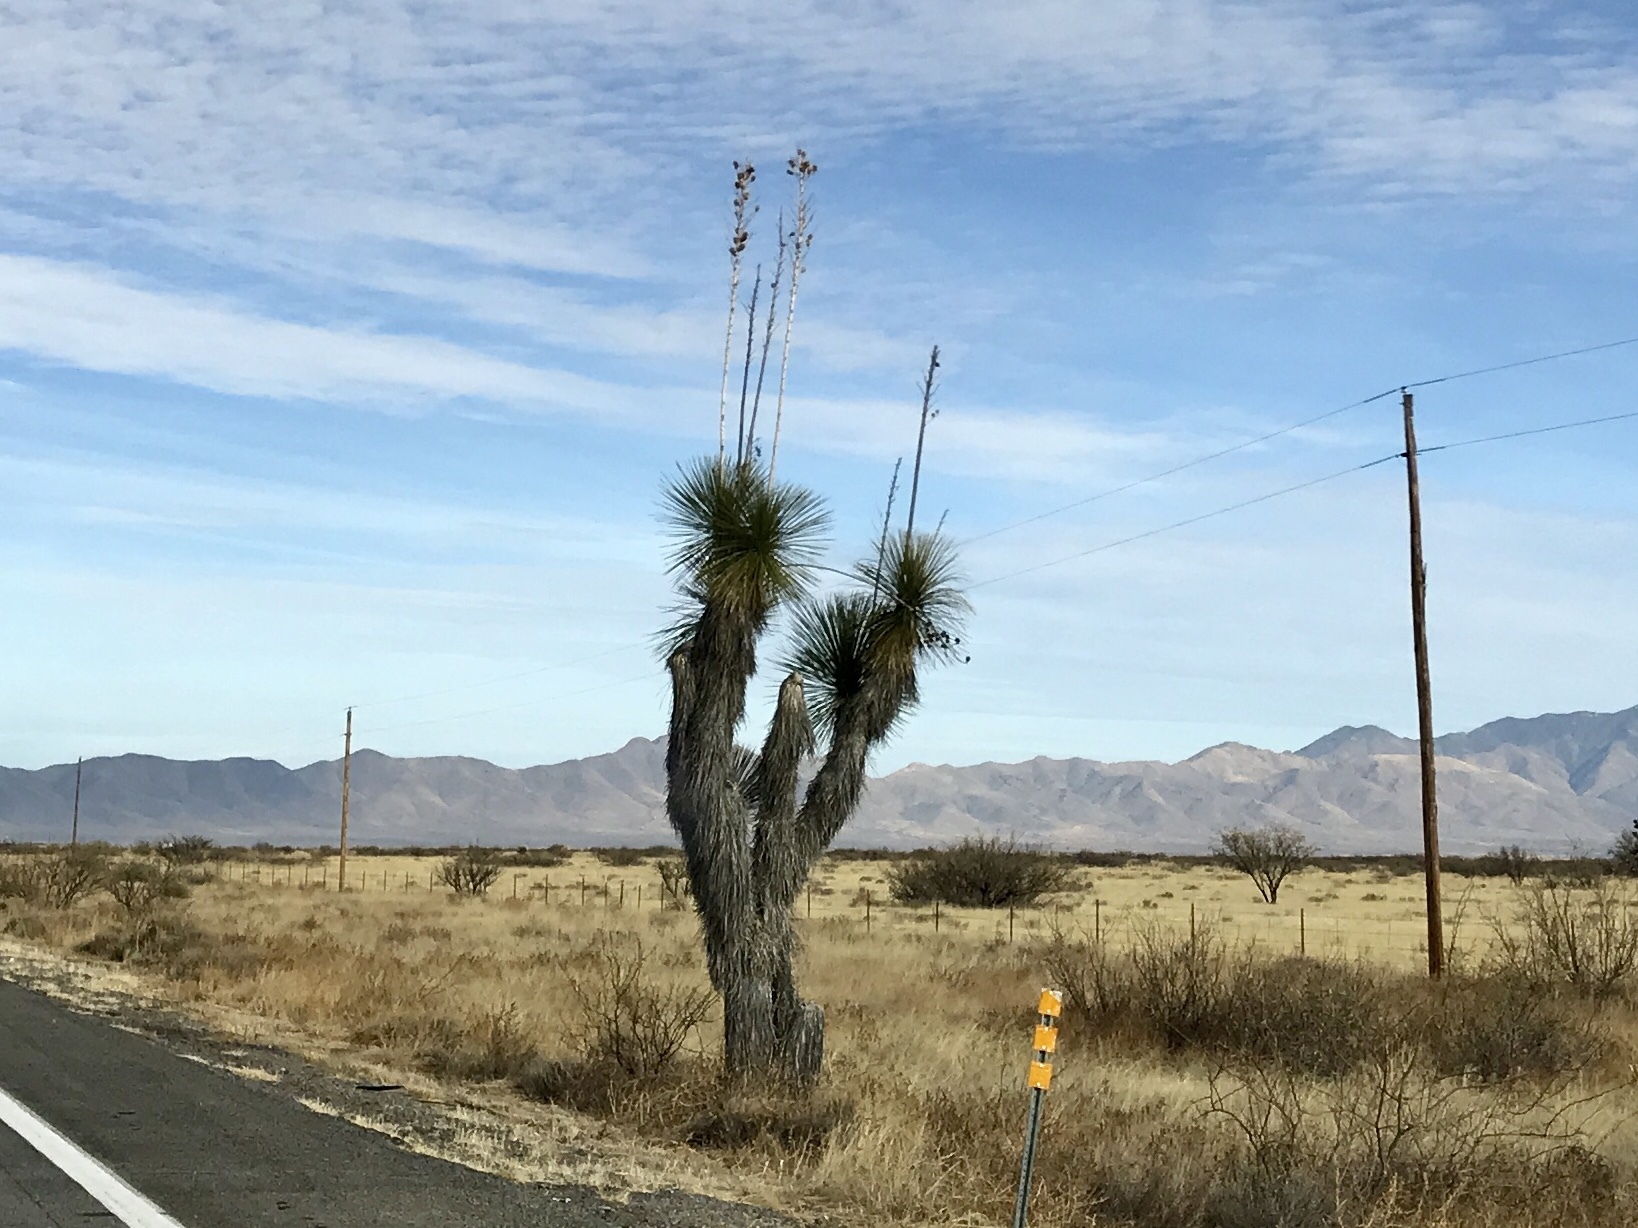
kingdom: Plantae
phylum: Tracheophyta
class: Liliopsida
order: Asparagales
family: Asparagaceae
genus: Yucca
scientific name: Yucca elata
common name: Palmella
